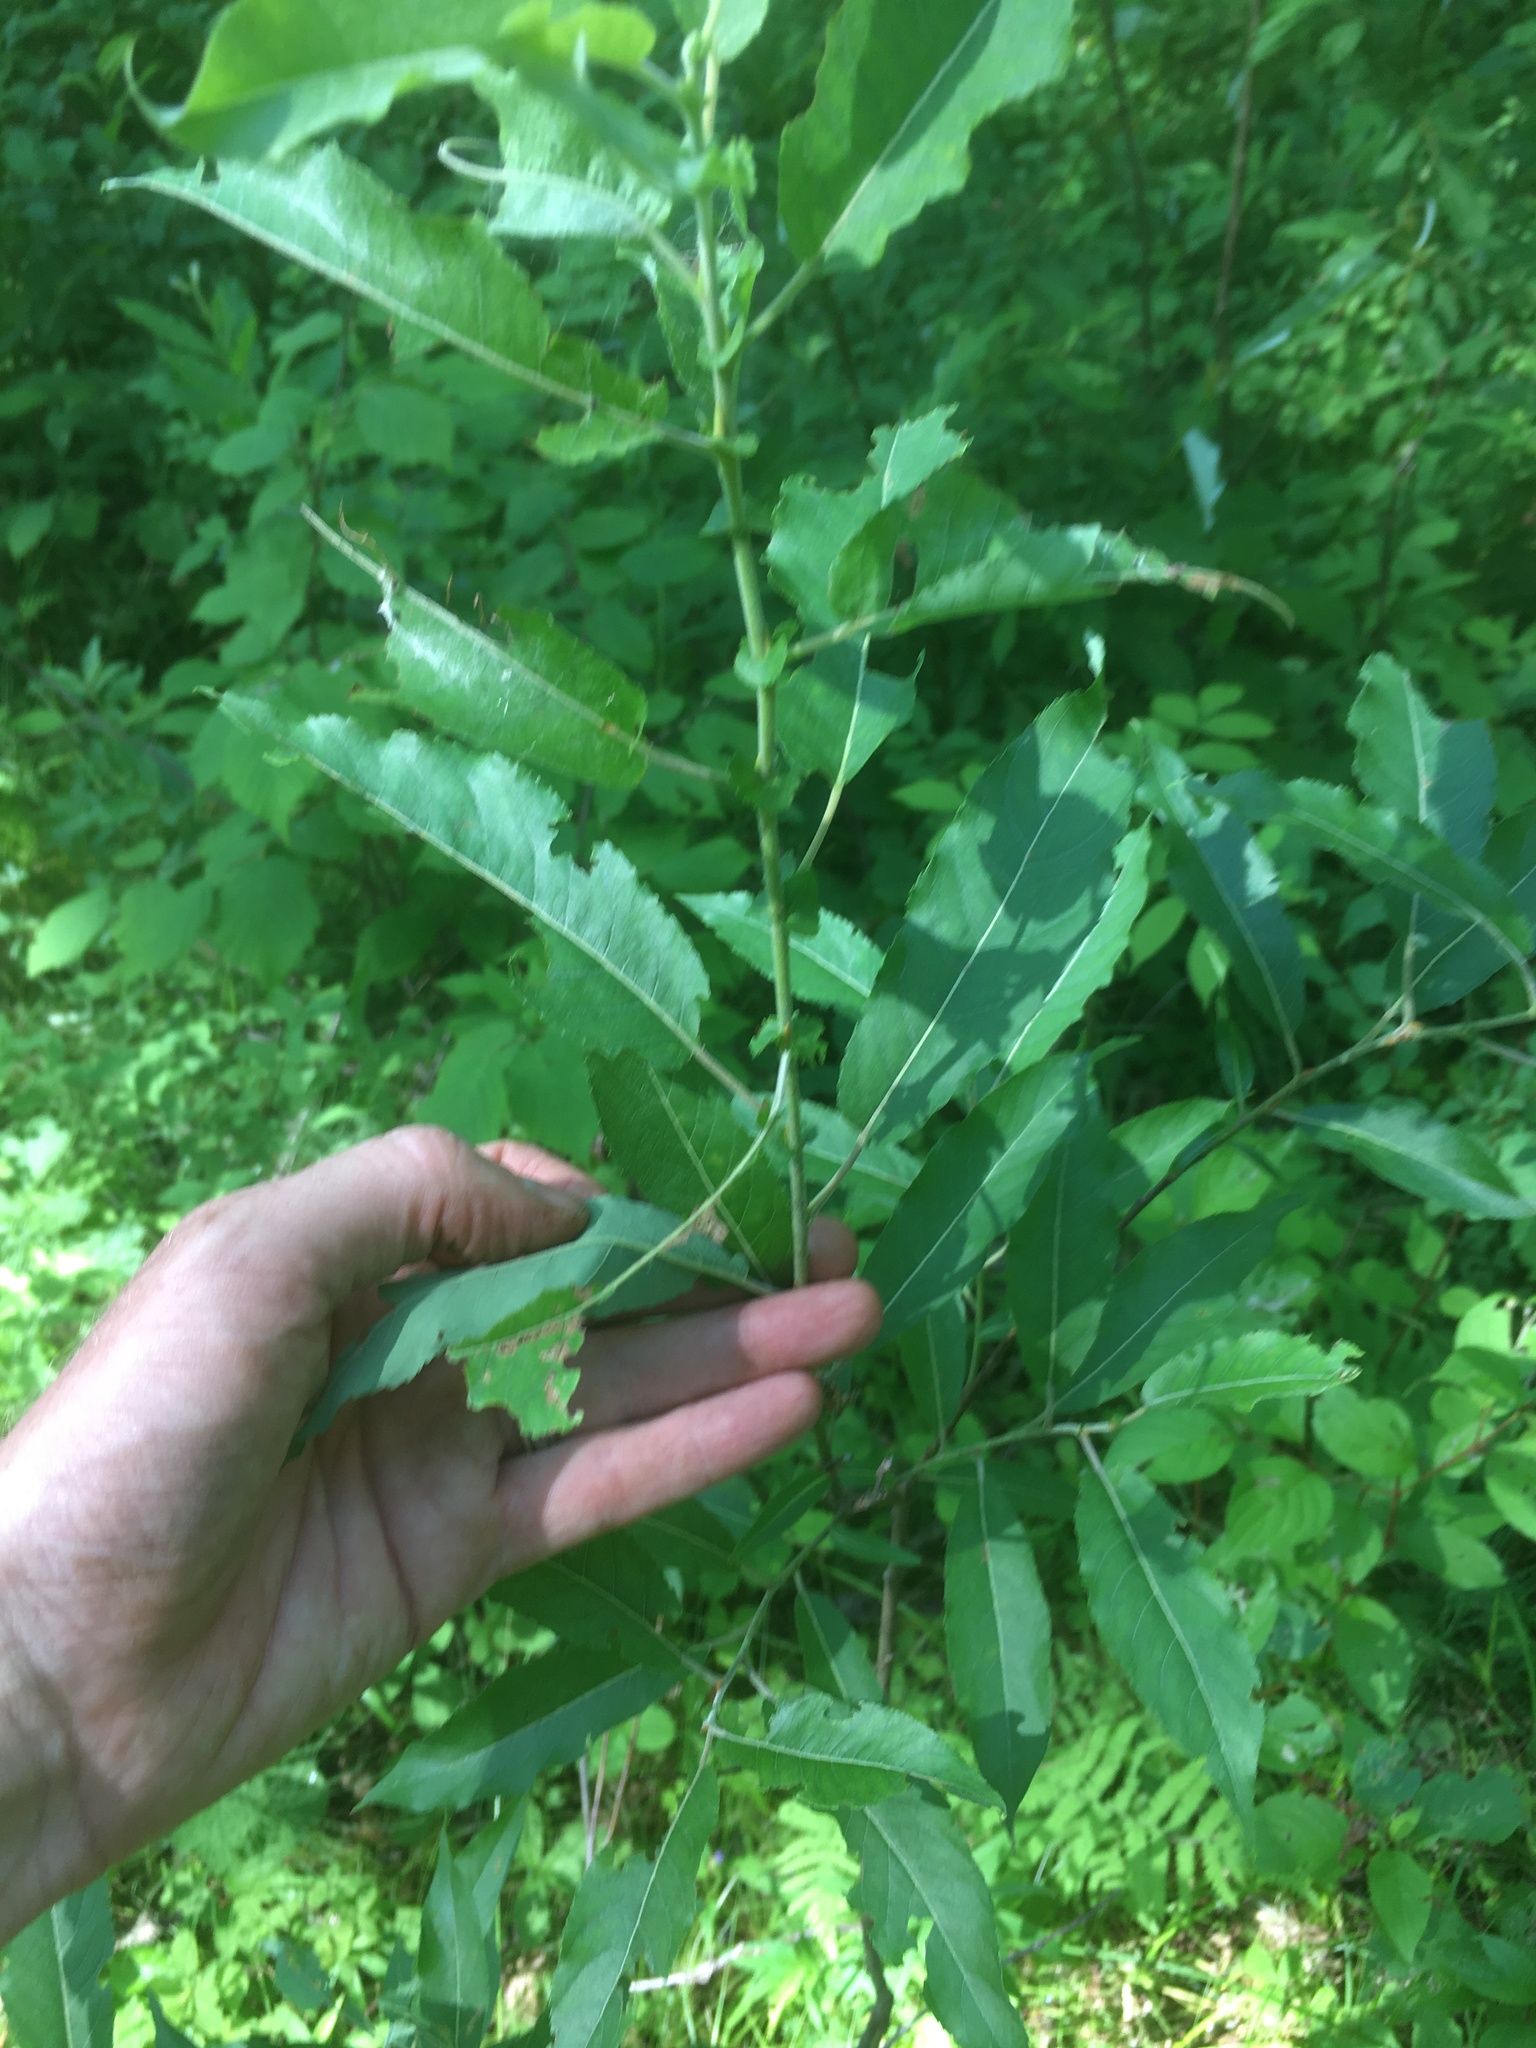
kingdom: Plantae
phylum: Tracheophyta
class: Magnoliopsida
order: Malpighiales
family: Salicaceae
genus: Salix
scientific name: Salix eriocephala
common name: Heart-leaved willow
